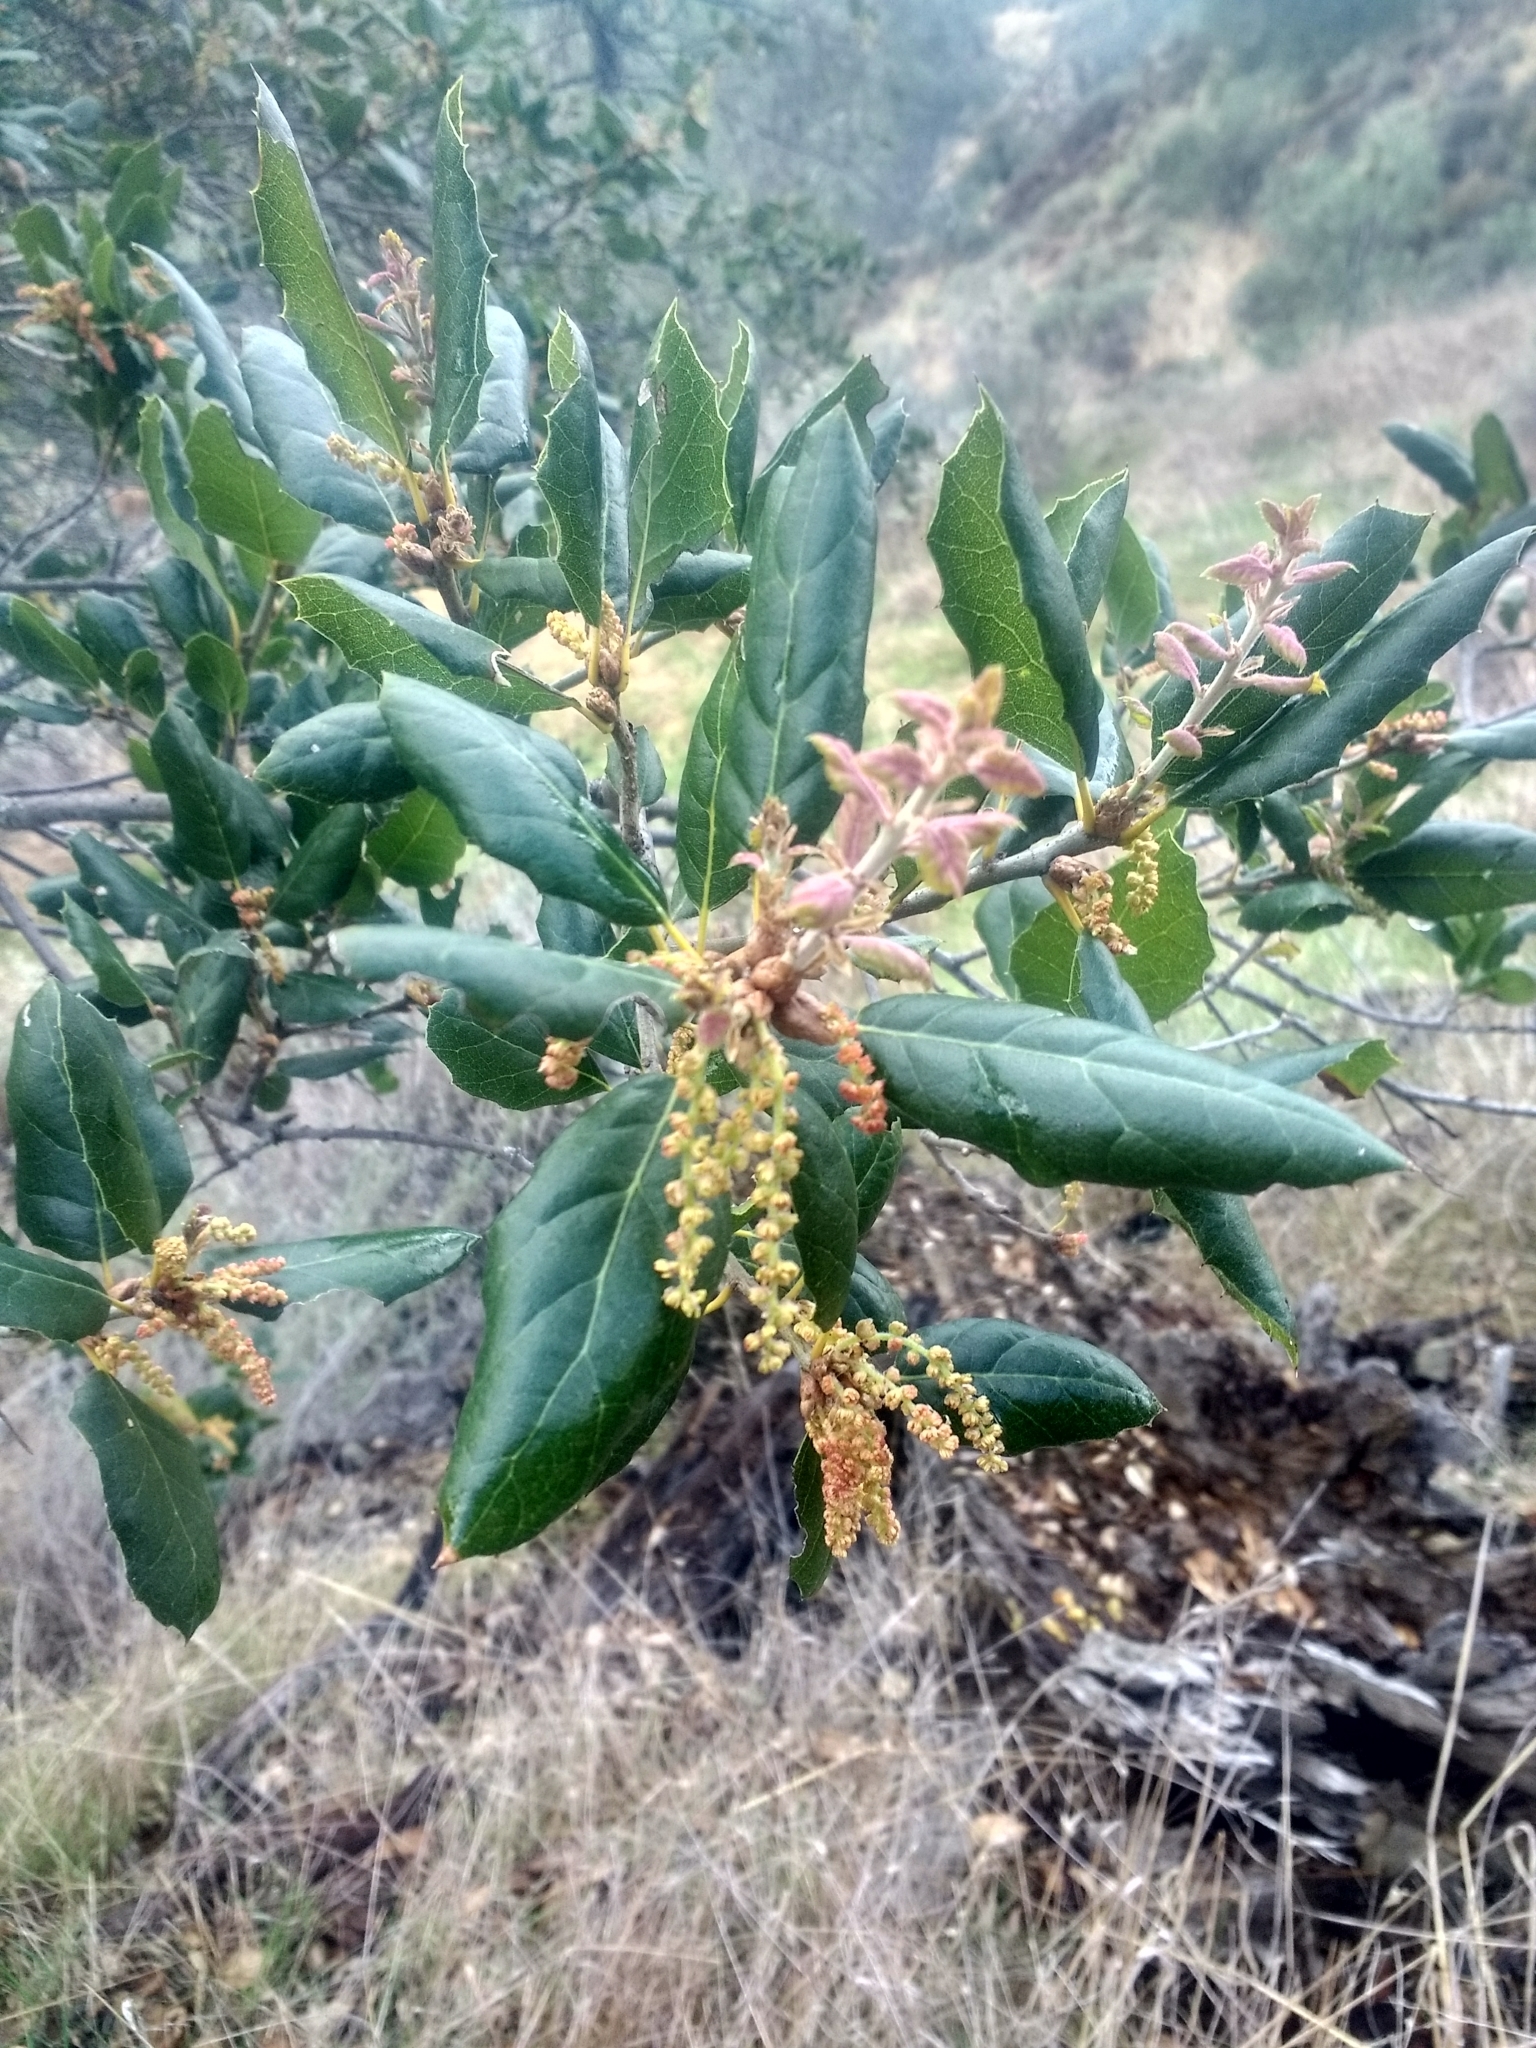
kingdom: Plantae
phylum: Tracheophyta
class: Magnoliopsida
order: Fagales
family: Fagaceae
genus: Quercus
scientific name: Quercus agrifolia
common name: California live oak
